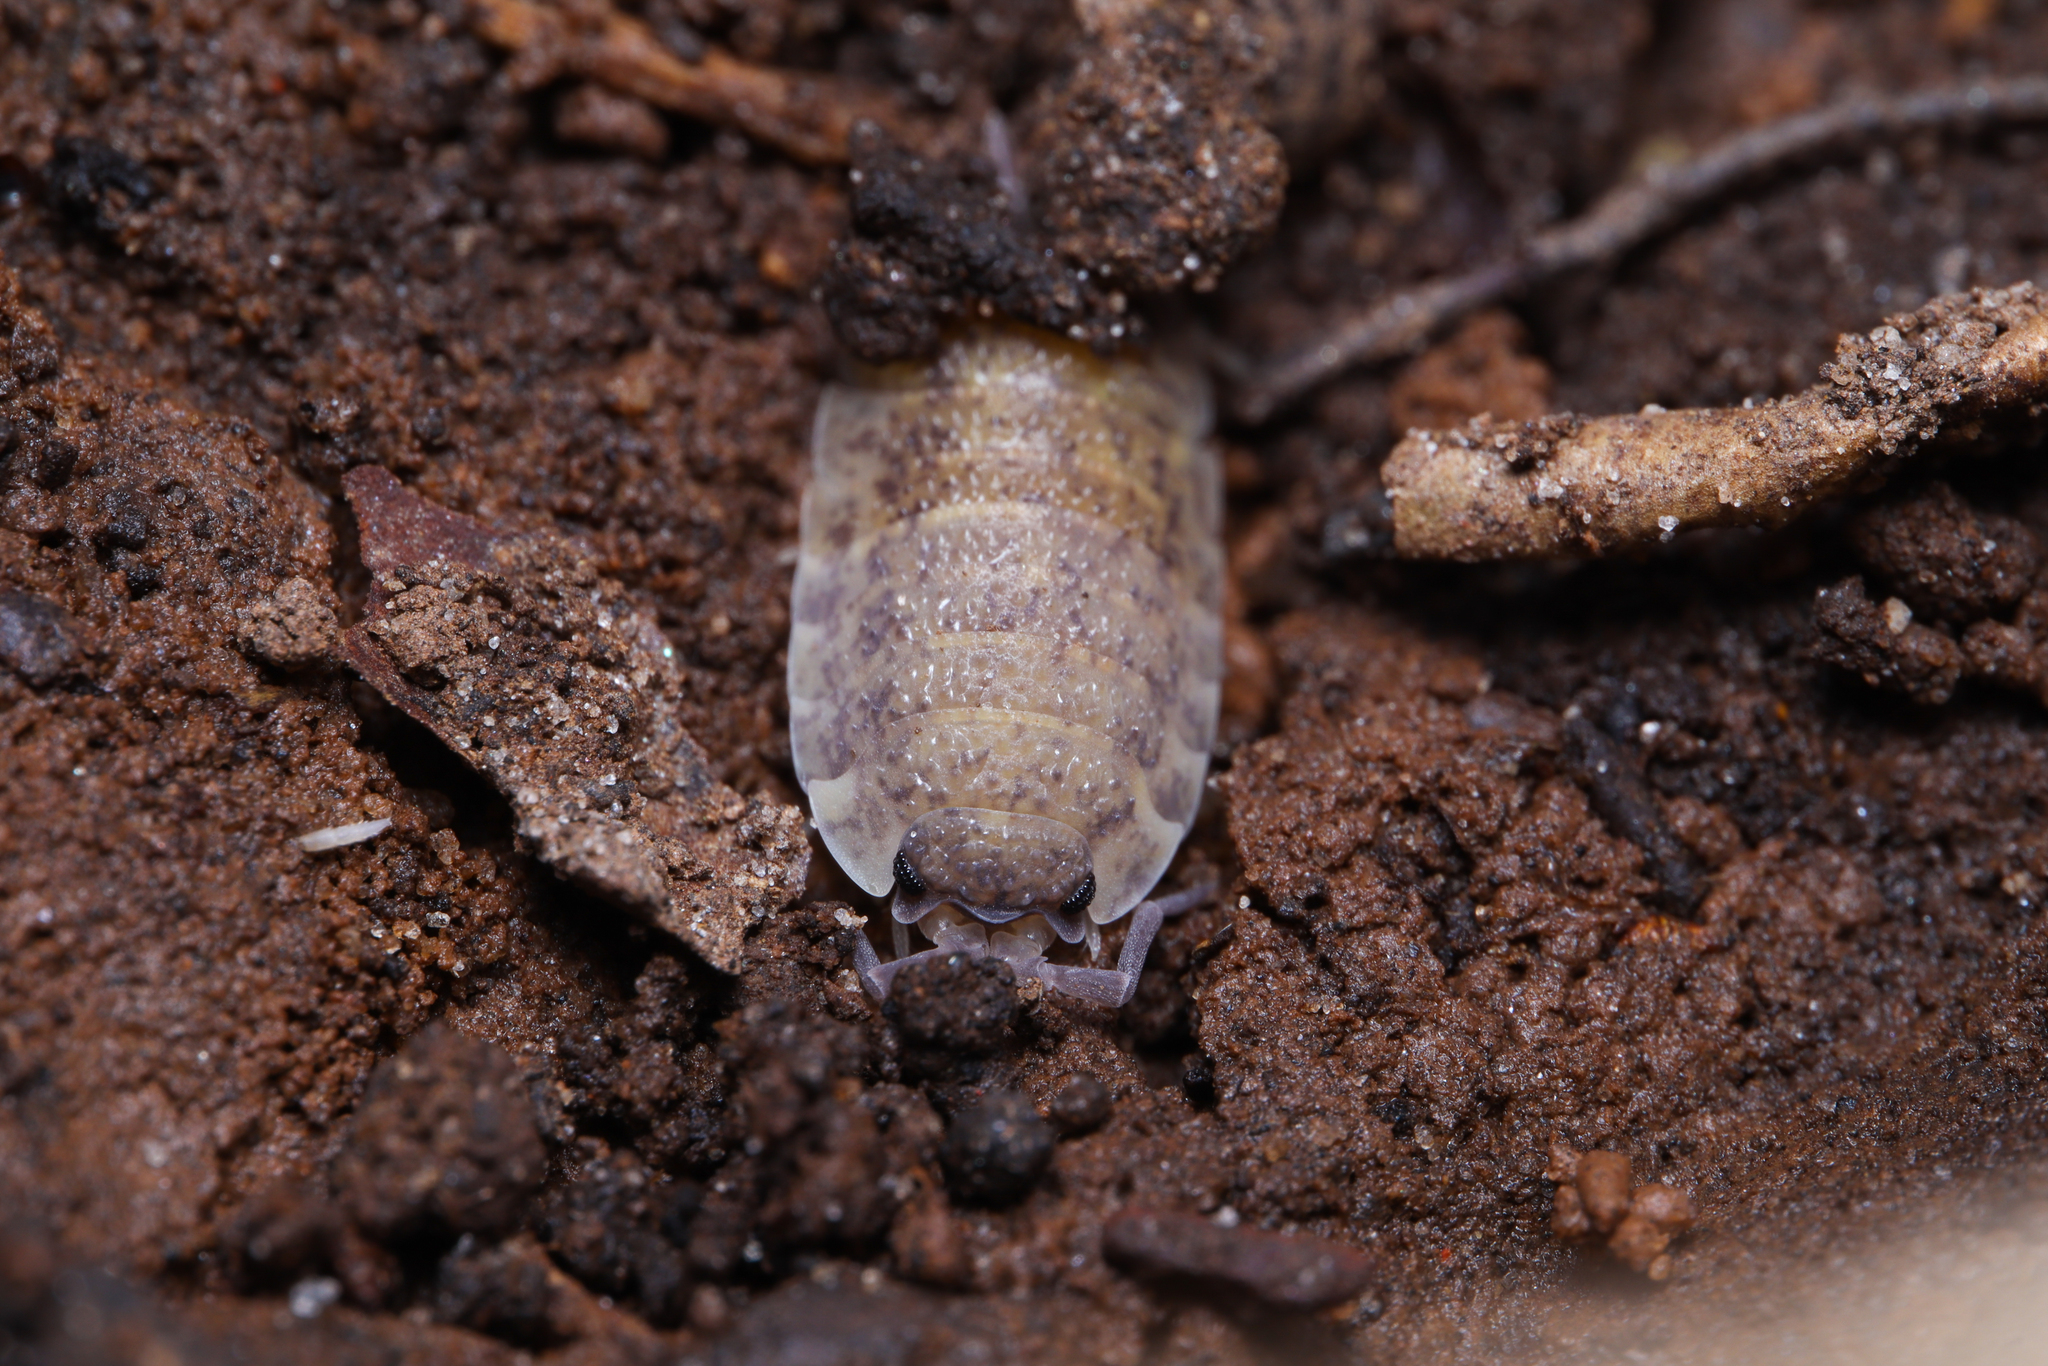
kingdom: Animalia
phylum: Arthropoda
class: Malacostraca
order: Isopoda
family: Porcellionidae
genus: Porcellio
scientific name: Porcellio scaber
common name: Common rough woodlouse
